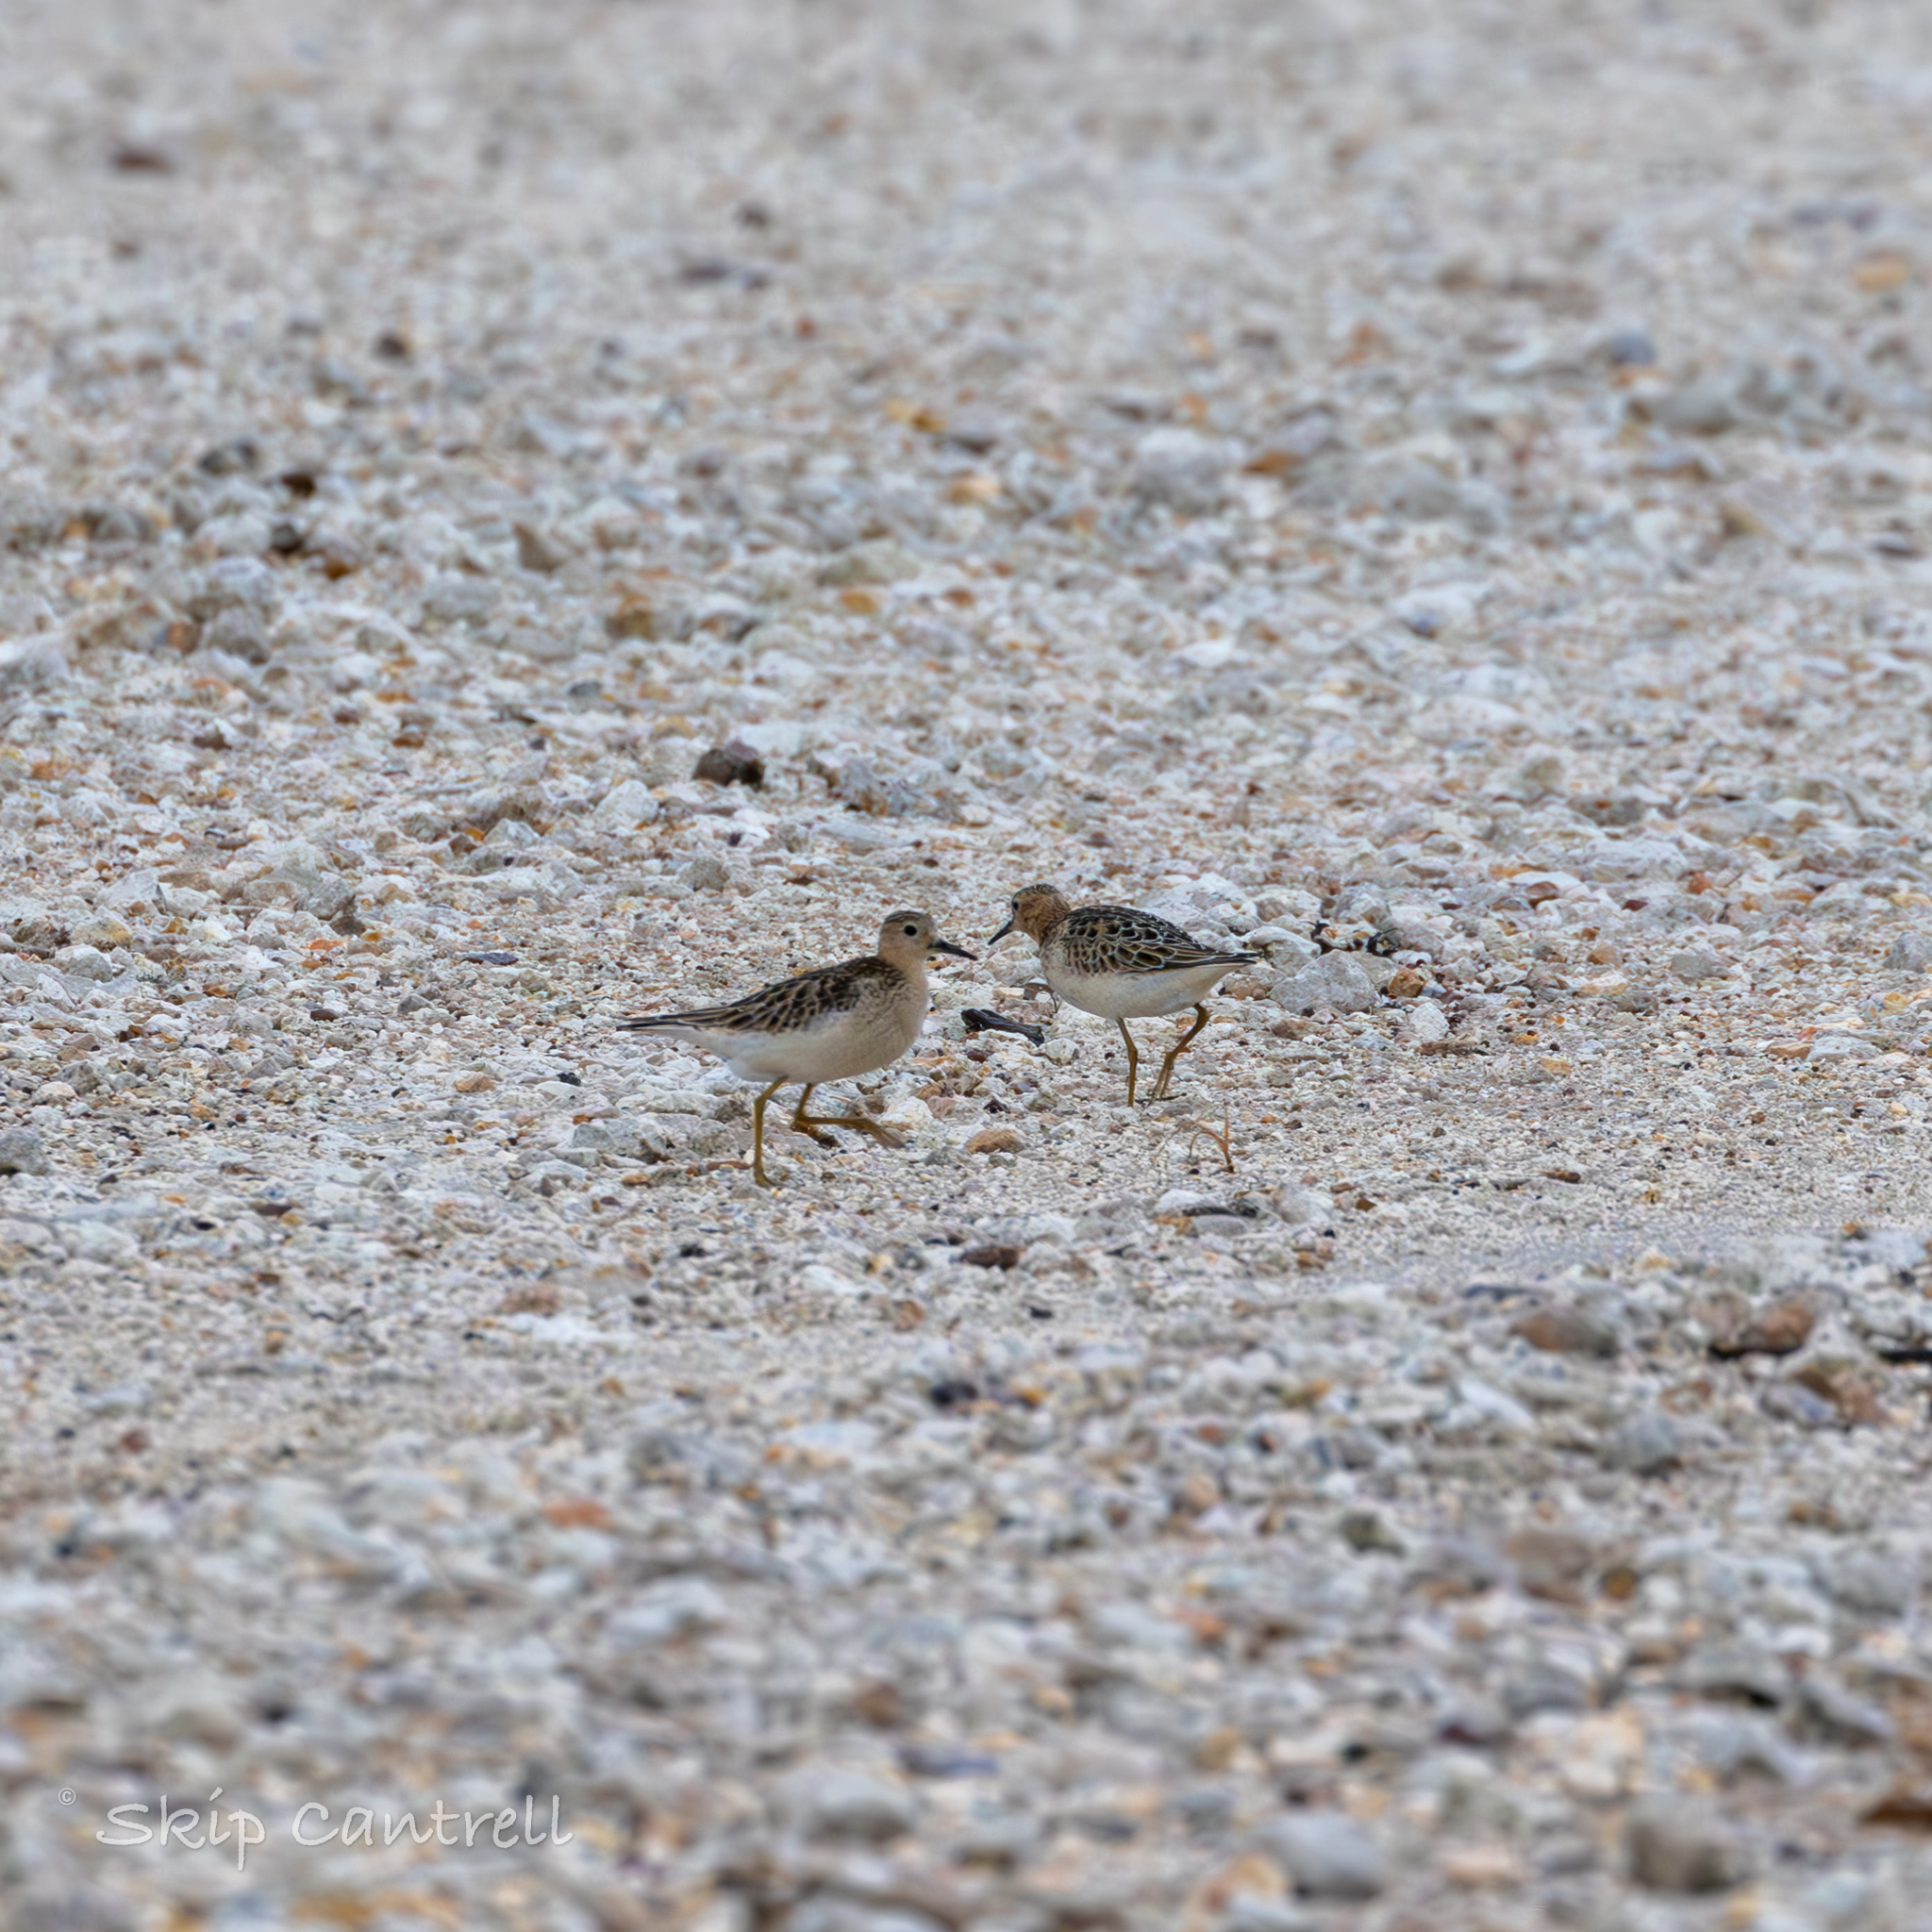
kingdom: Animalia
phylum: Chordata
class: Aves
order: Charadriiformes
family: Scolopacidae
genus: Calidris
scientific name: Calidris subruficollis
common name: Buff-breasted sandpiper
